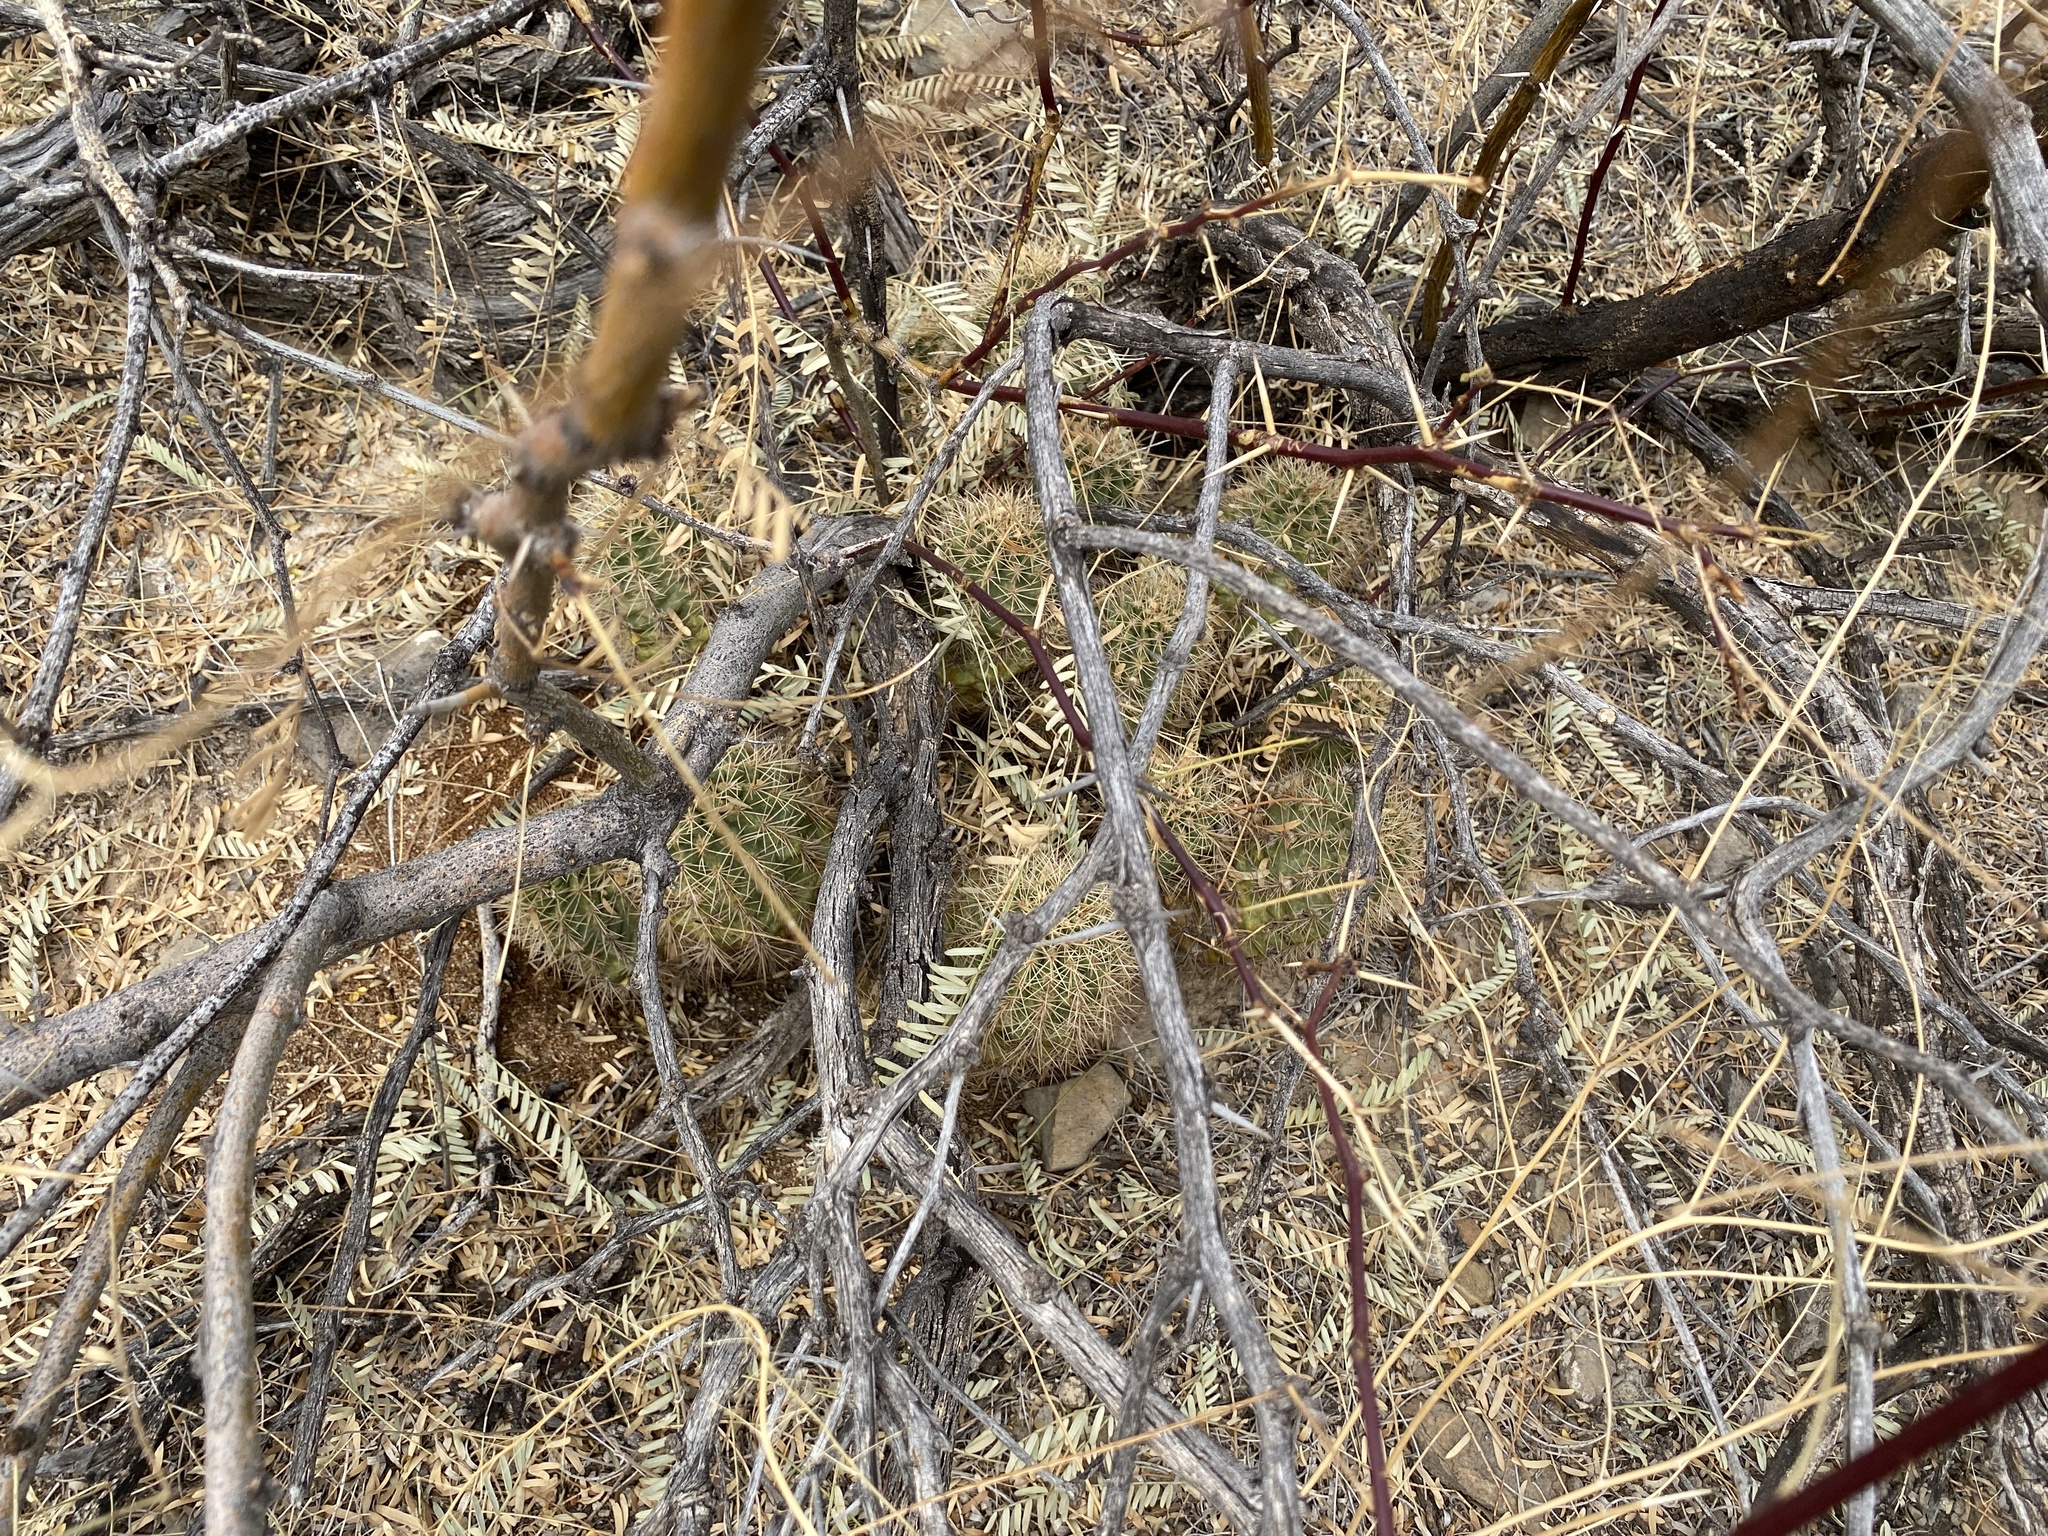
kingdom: Plantae
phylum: Tracheophyta
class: Magnoliopsida
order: Fabales
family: Fabaceae
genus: Prosopis
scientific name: Prosopis glandulosa
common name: Honey mesquite
